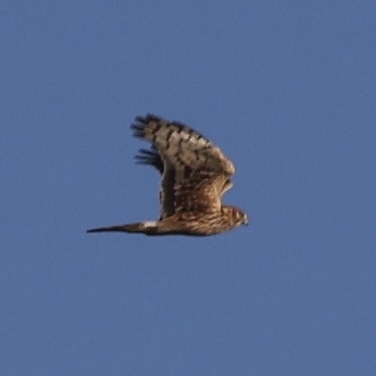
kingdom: Animalia
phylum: Chordata
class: Aves
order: Accipitriformes
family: Accipitridae
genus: Circus
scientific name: Circus cyaneus
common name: Hen harrier
